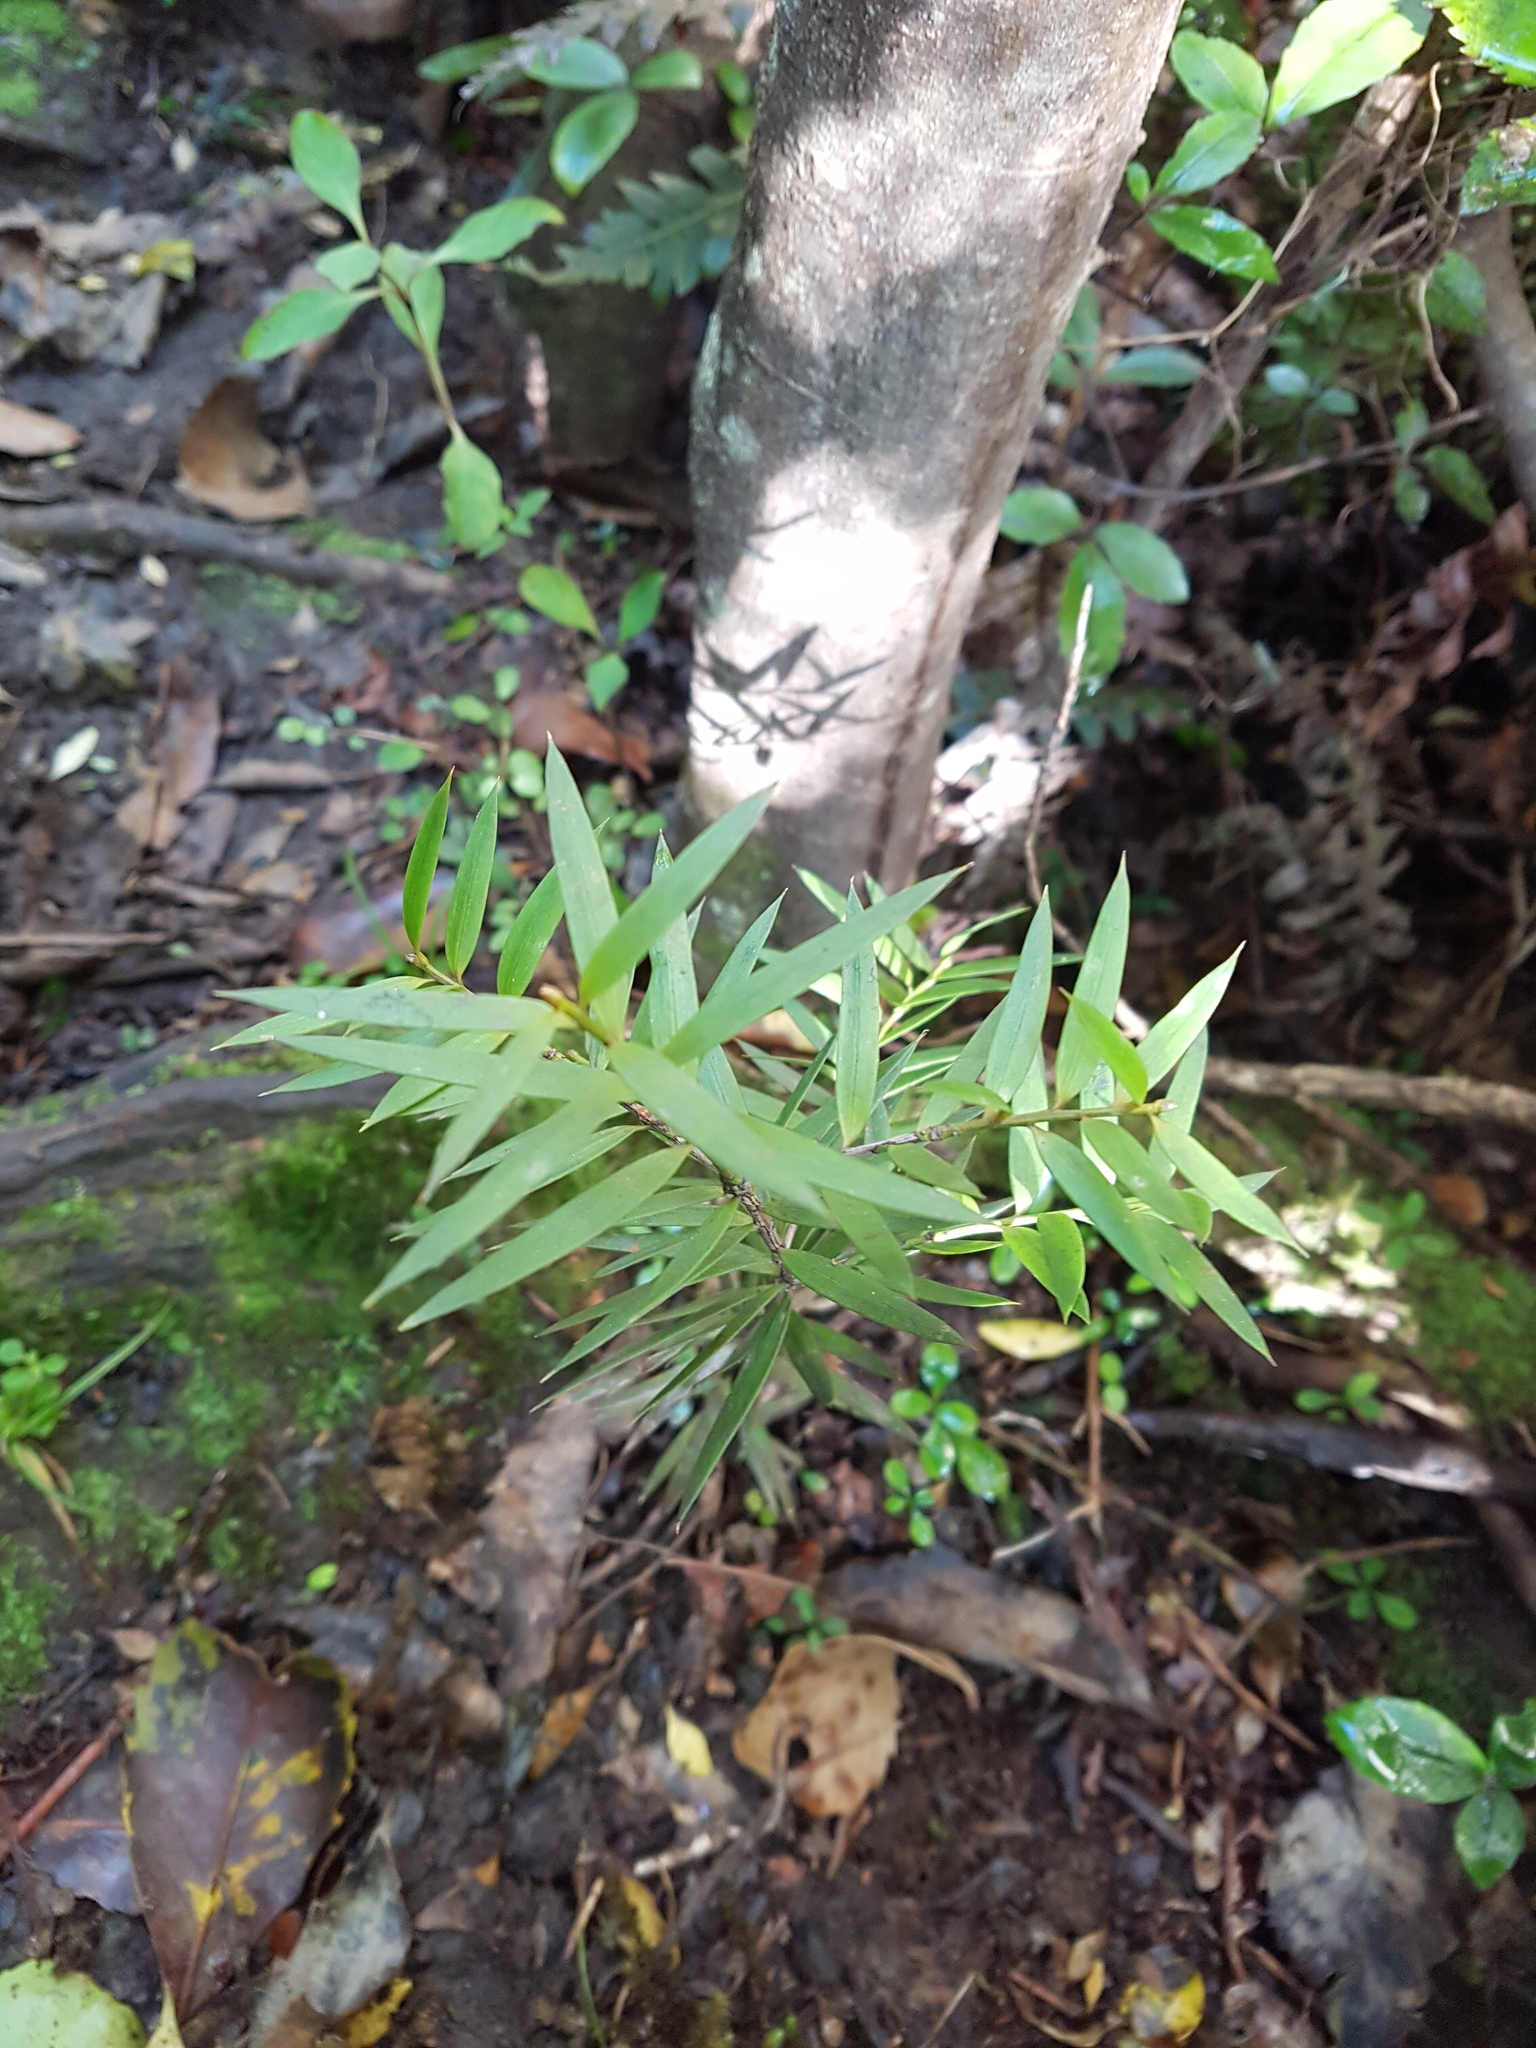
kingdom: Plantae
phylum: Tracheophyta
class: Pinopsida
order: Pinales
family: Podocarpaceae
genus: Podocarpus
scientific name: Podocarpus laetus
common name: Hall's totara
